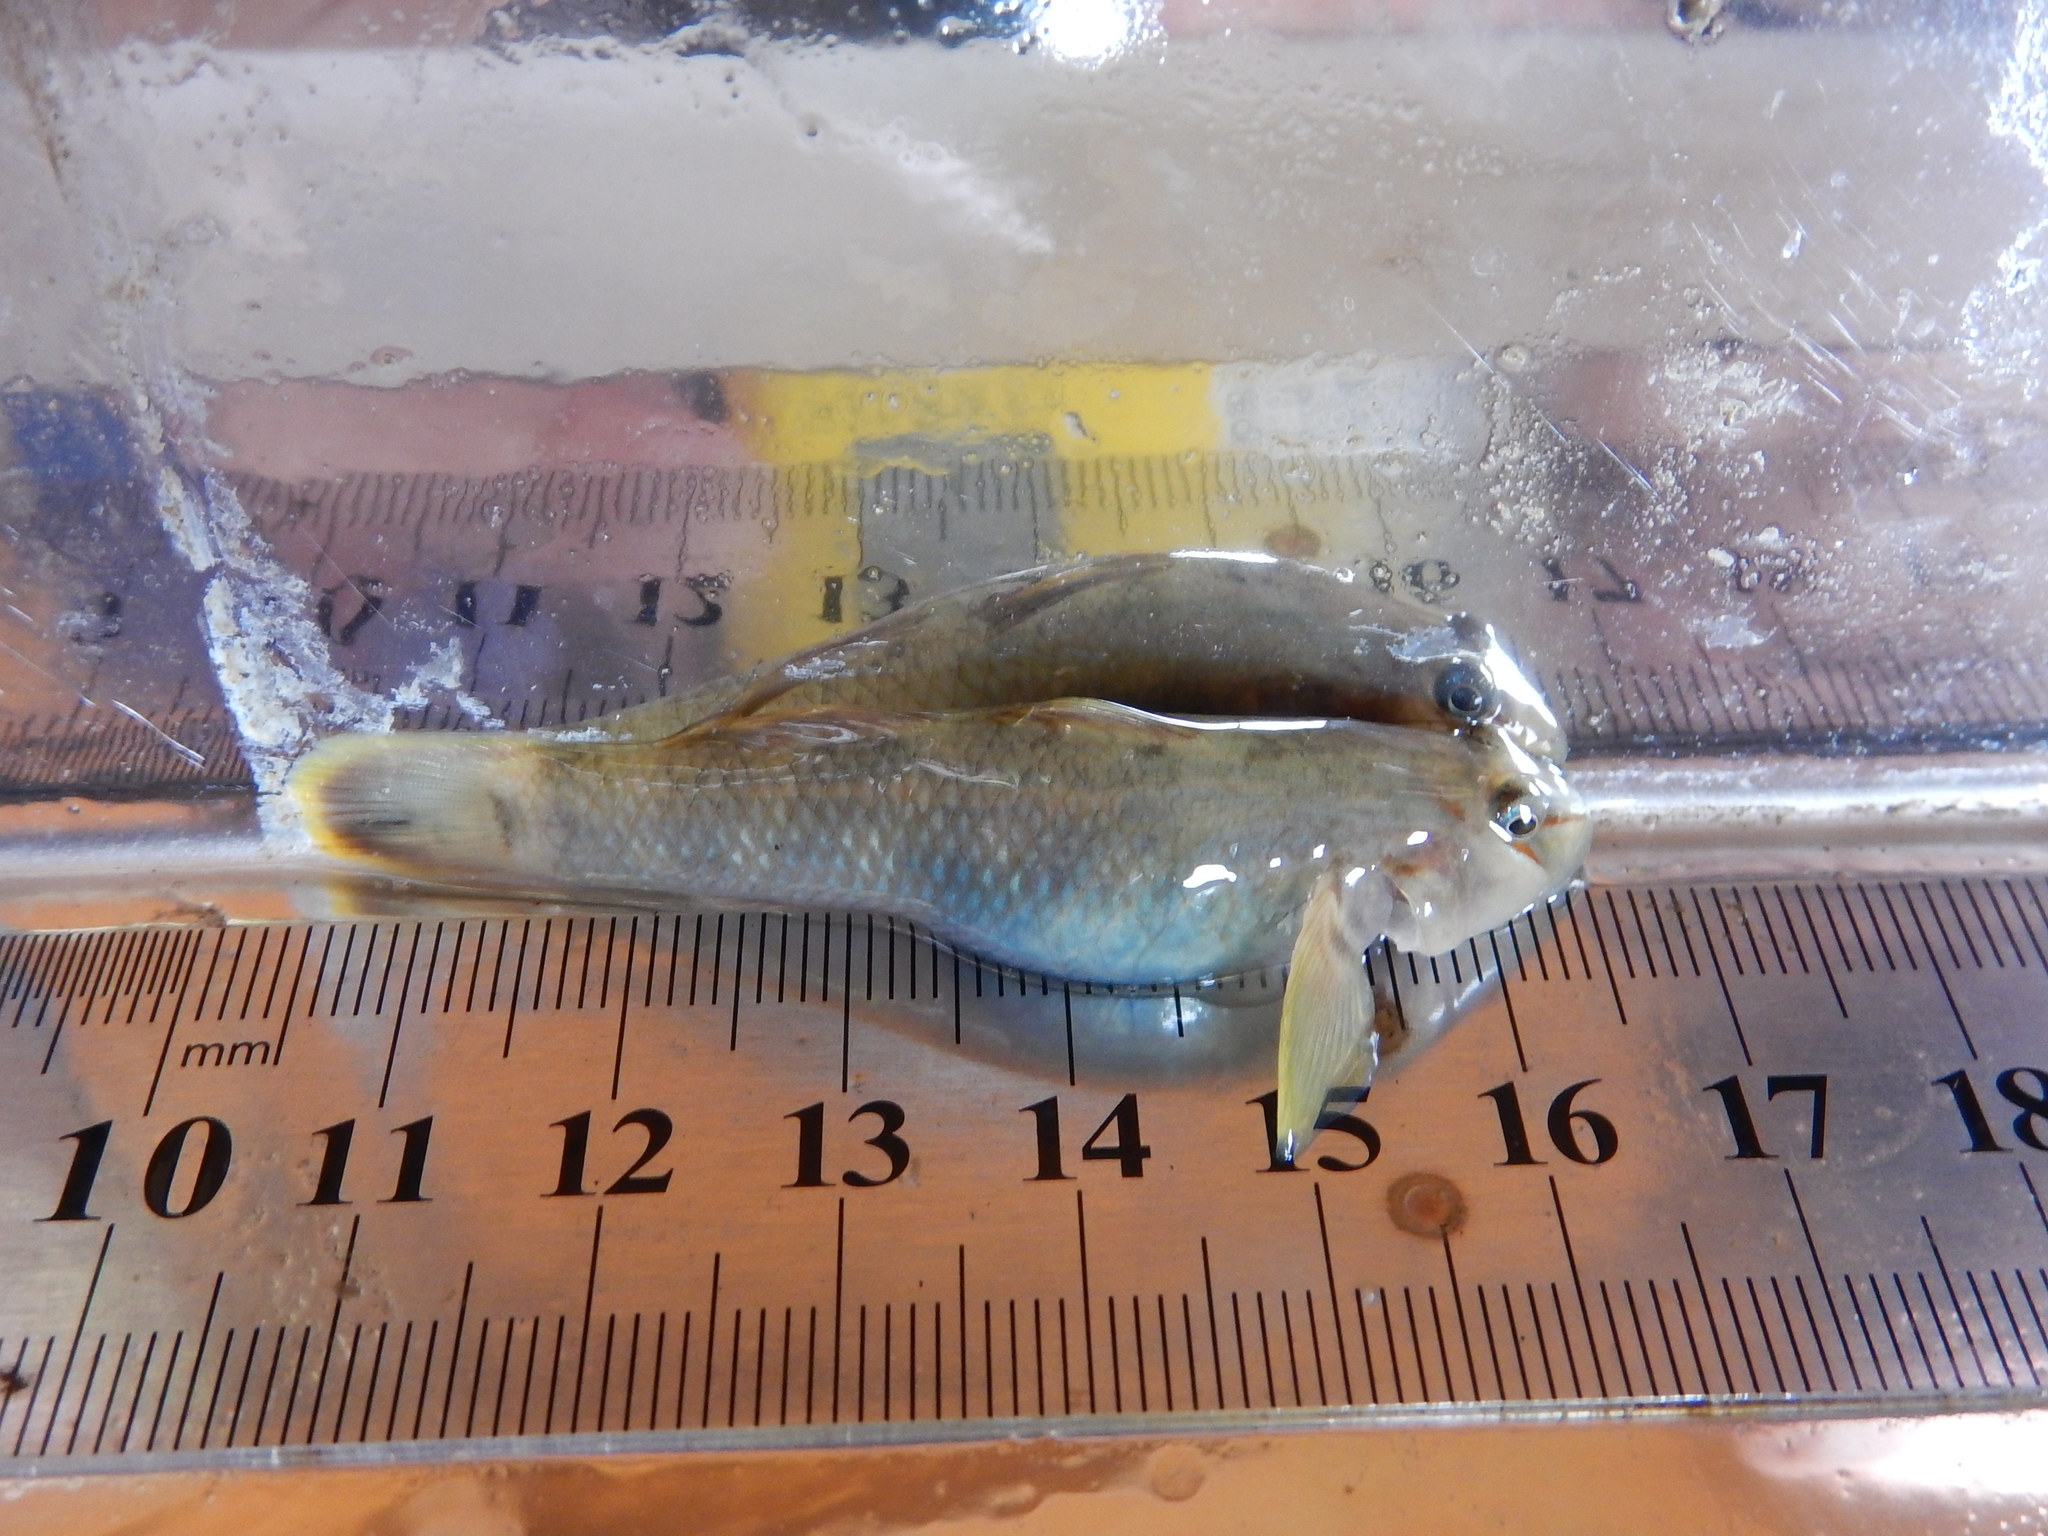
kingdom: Animalia
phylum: Chordata
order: Perciformes
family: Gobiidae
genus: Rhinogobius
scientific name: Rhinogobius candidianus
